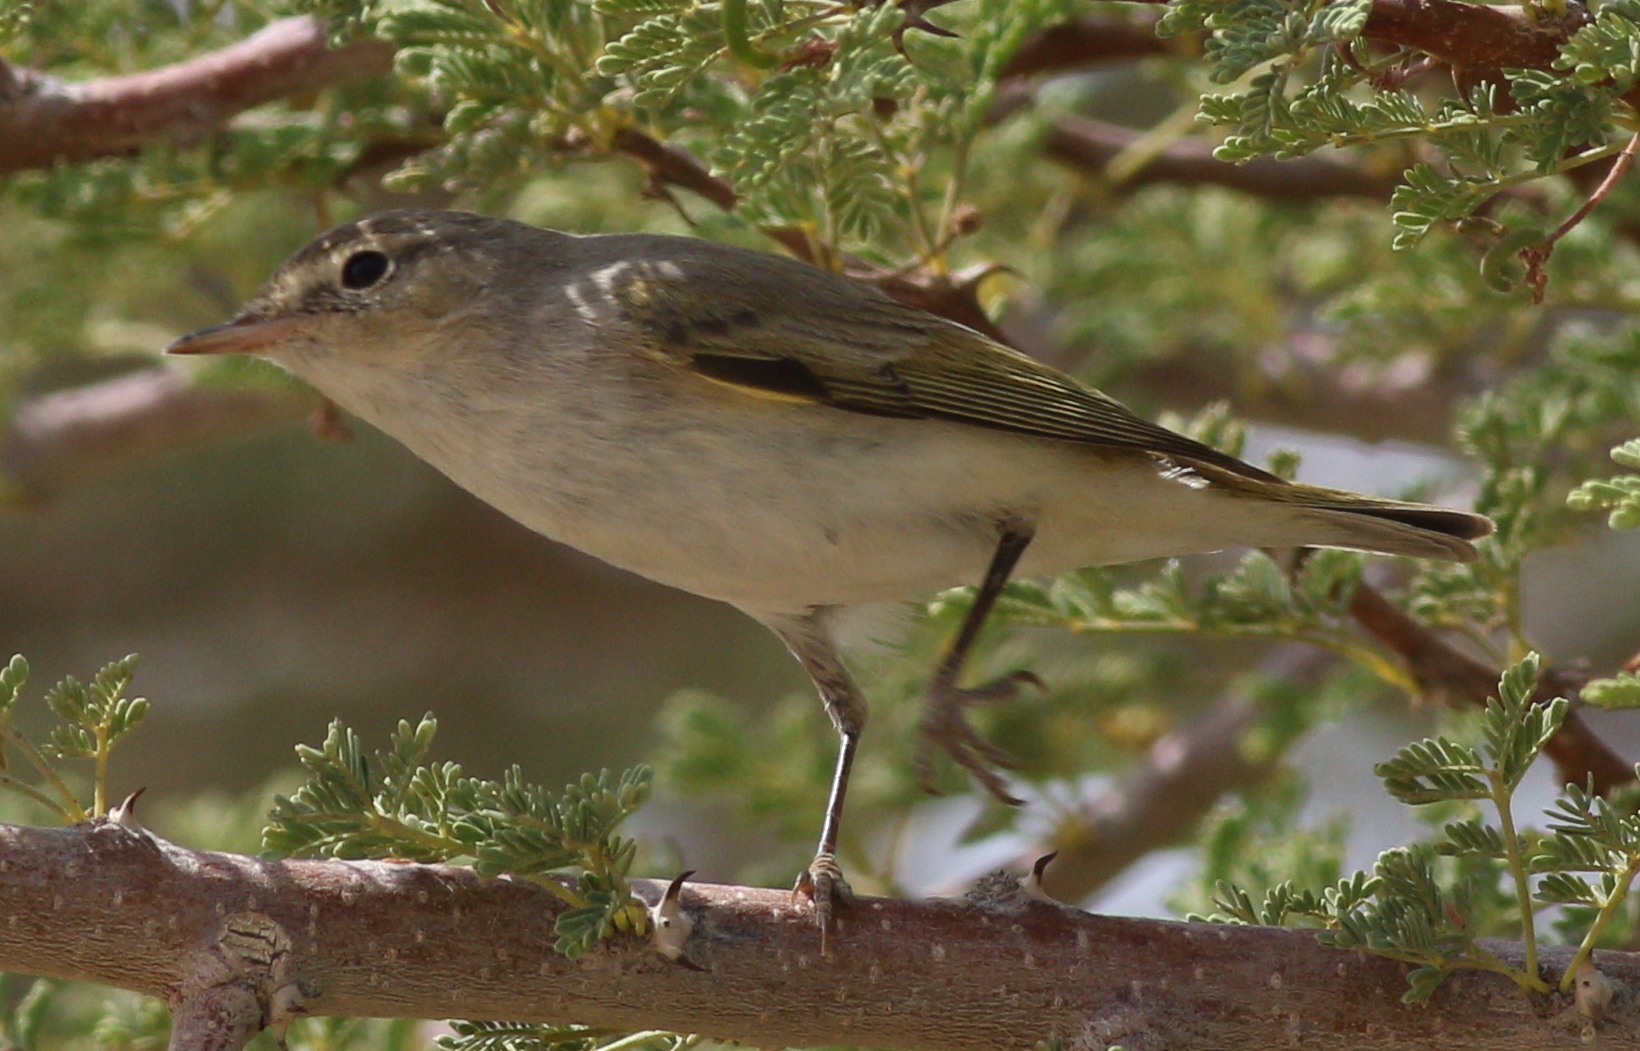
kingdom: Animalia
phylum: Chordata
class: Aves
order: Passeriformes
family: Phylloscopidae
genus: Phylloscopus
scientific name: Phylloscopus orientalis
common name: Eastern bonelli's warbler
